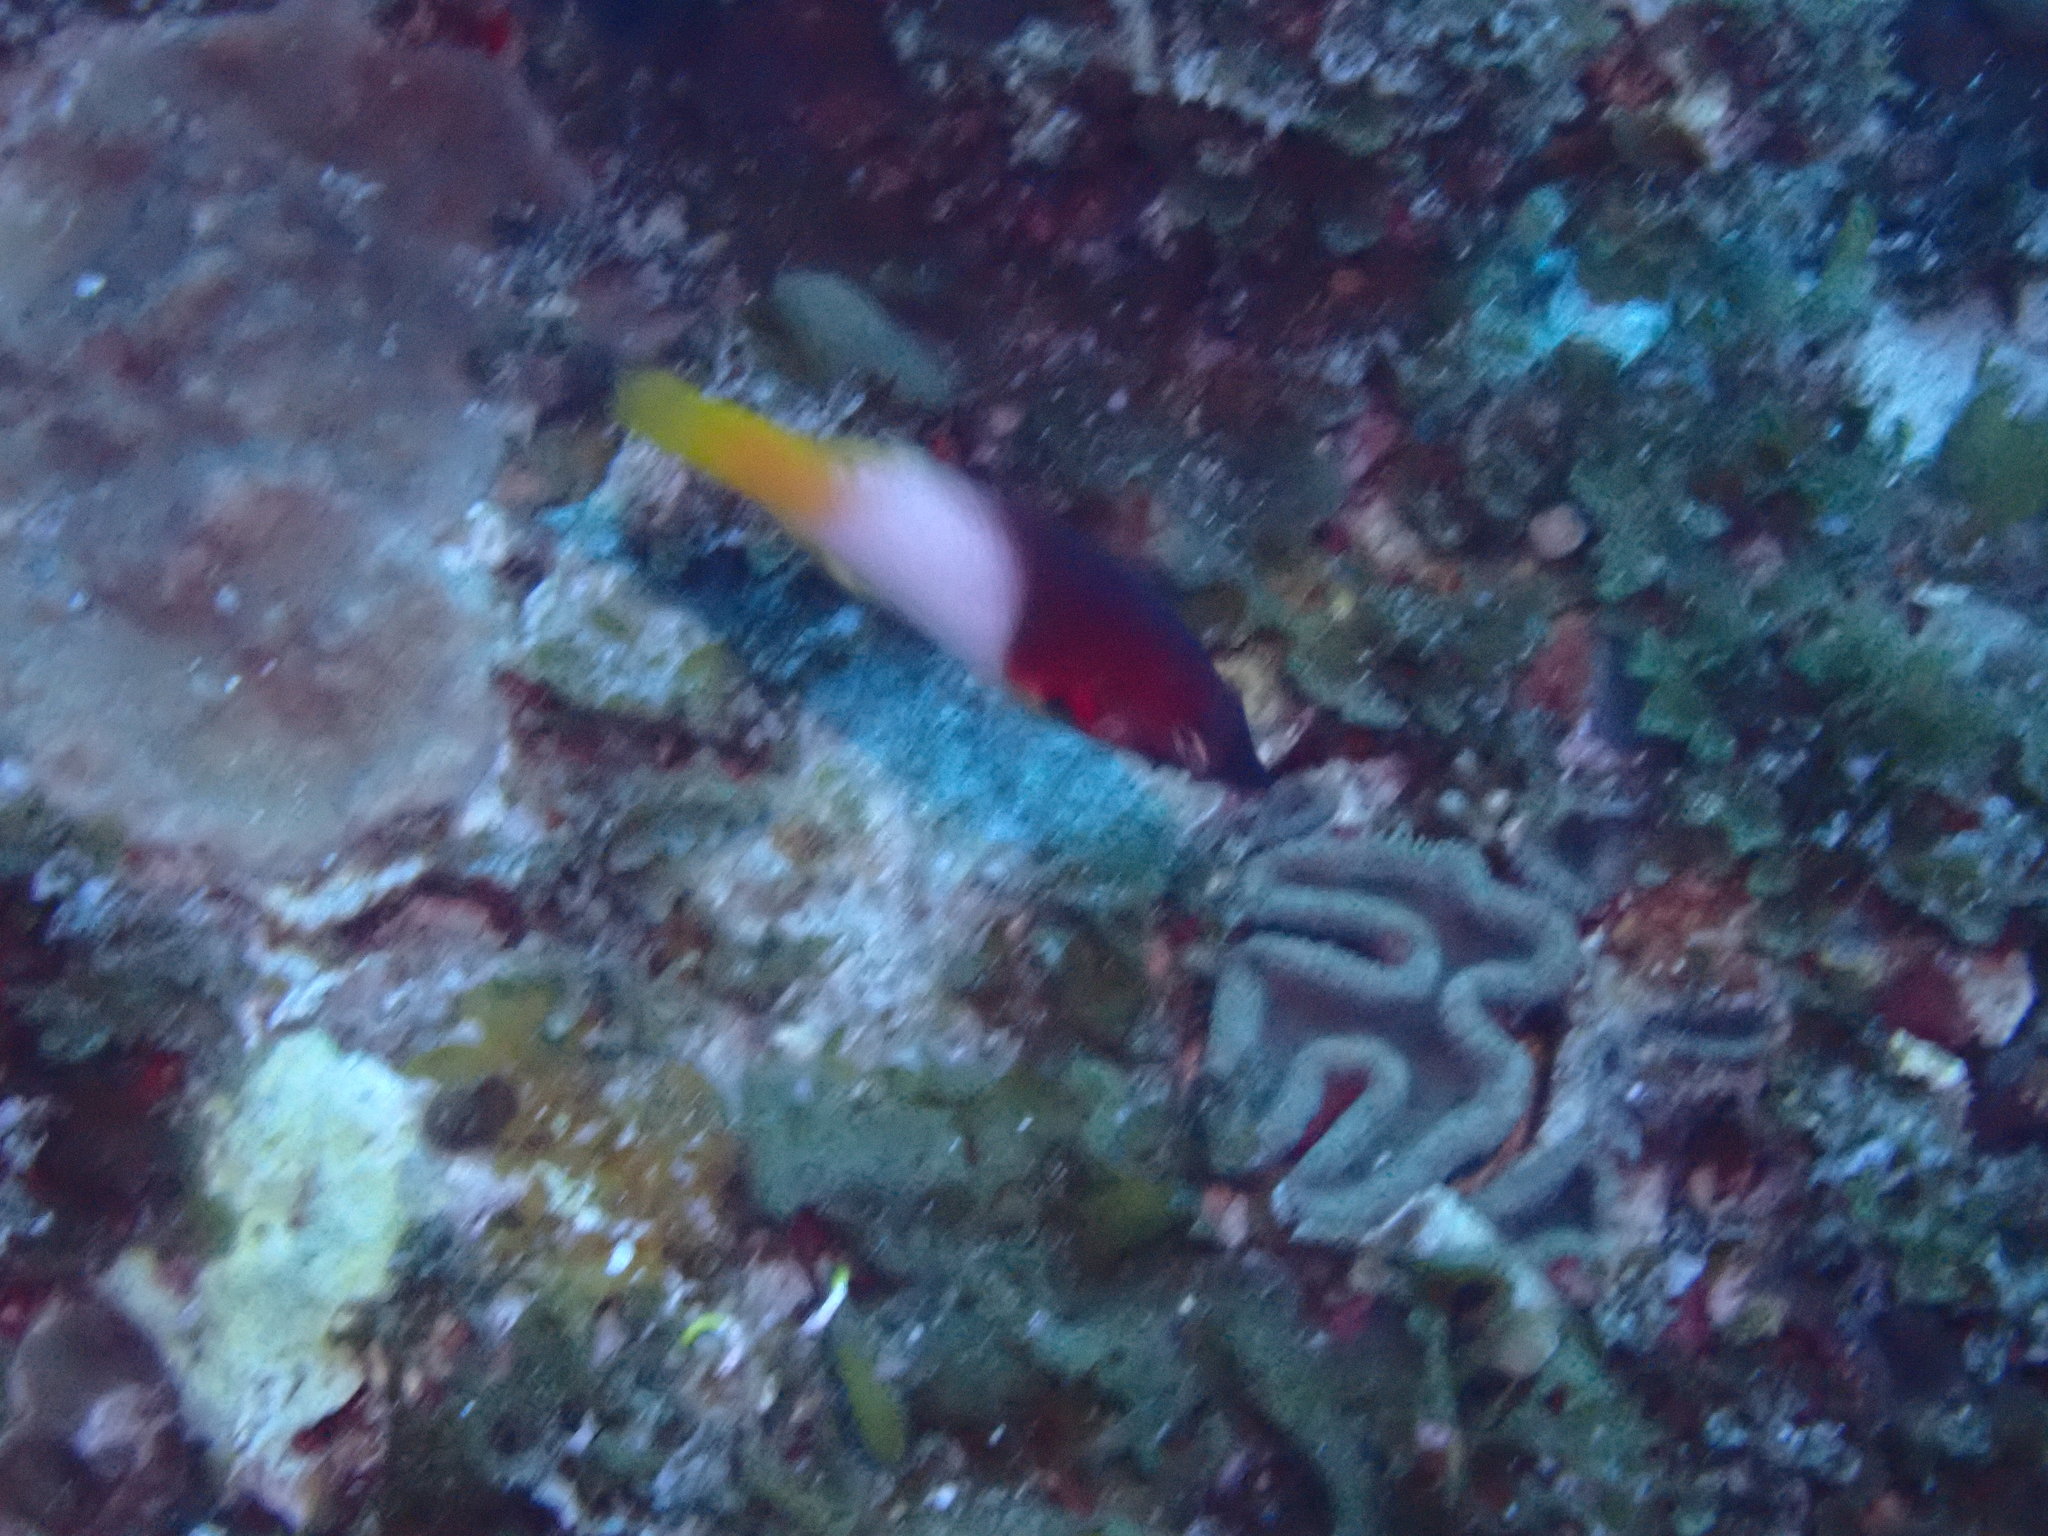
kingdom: Animalia
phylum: Chordata
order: Perciformes
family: Labridae
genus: Bodianus
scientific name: Bodianus axillaris
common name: Axilspot hogfish
